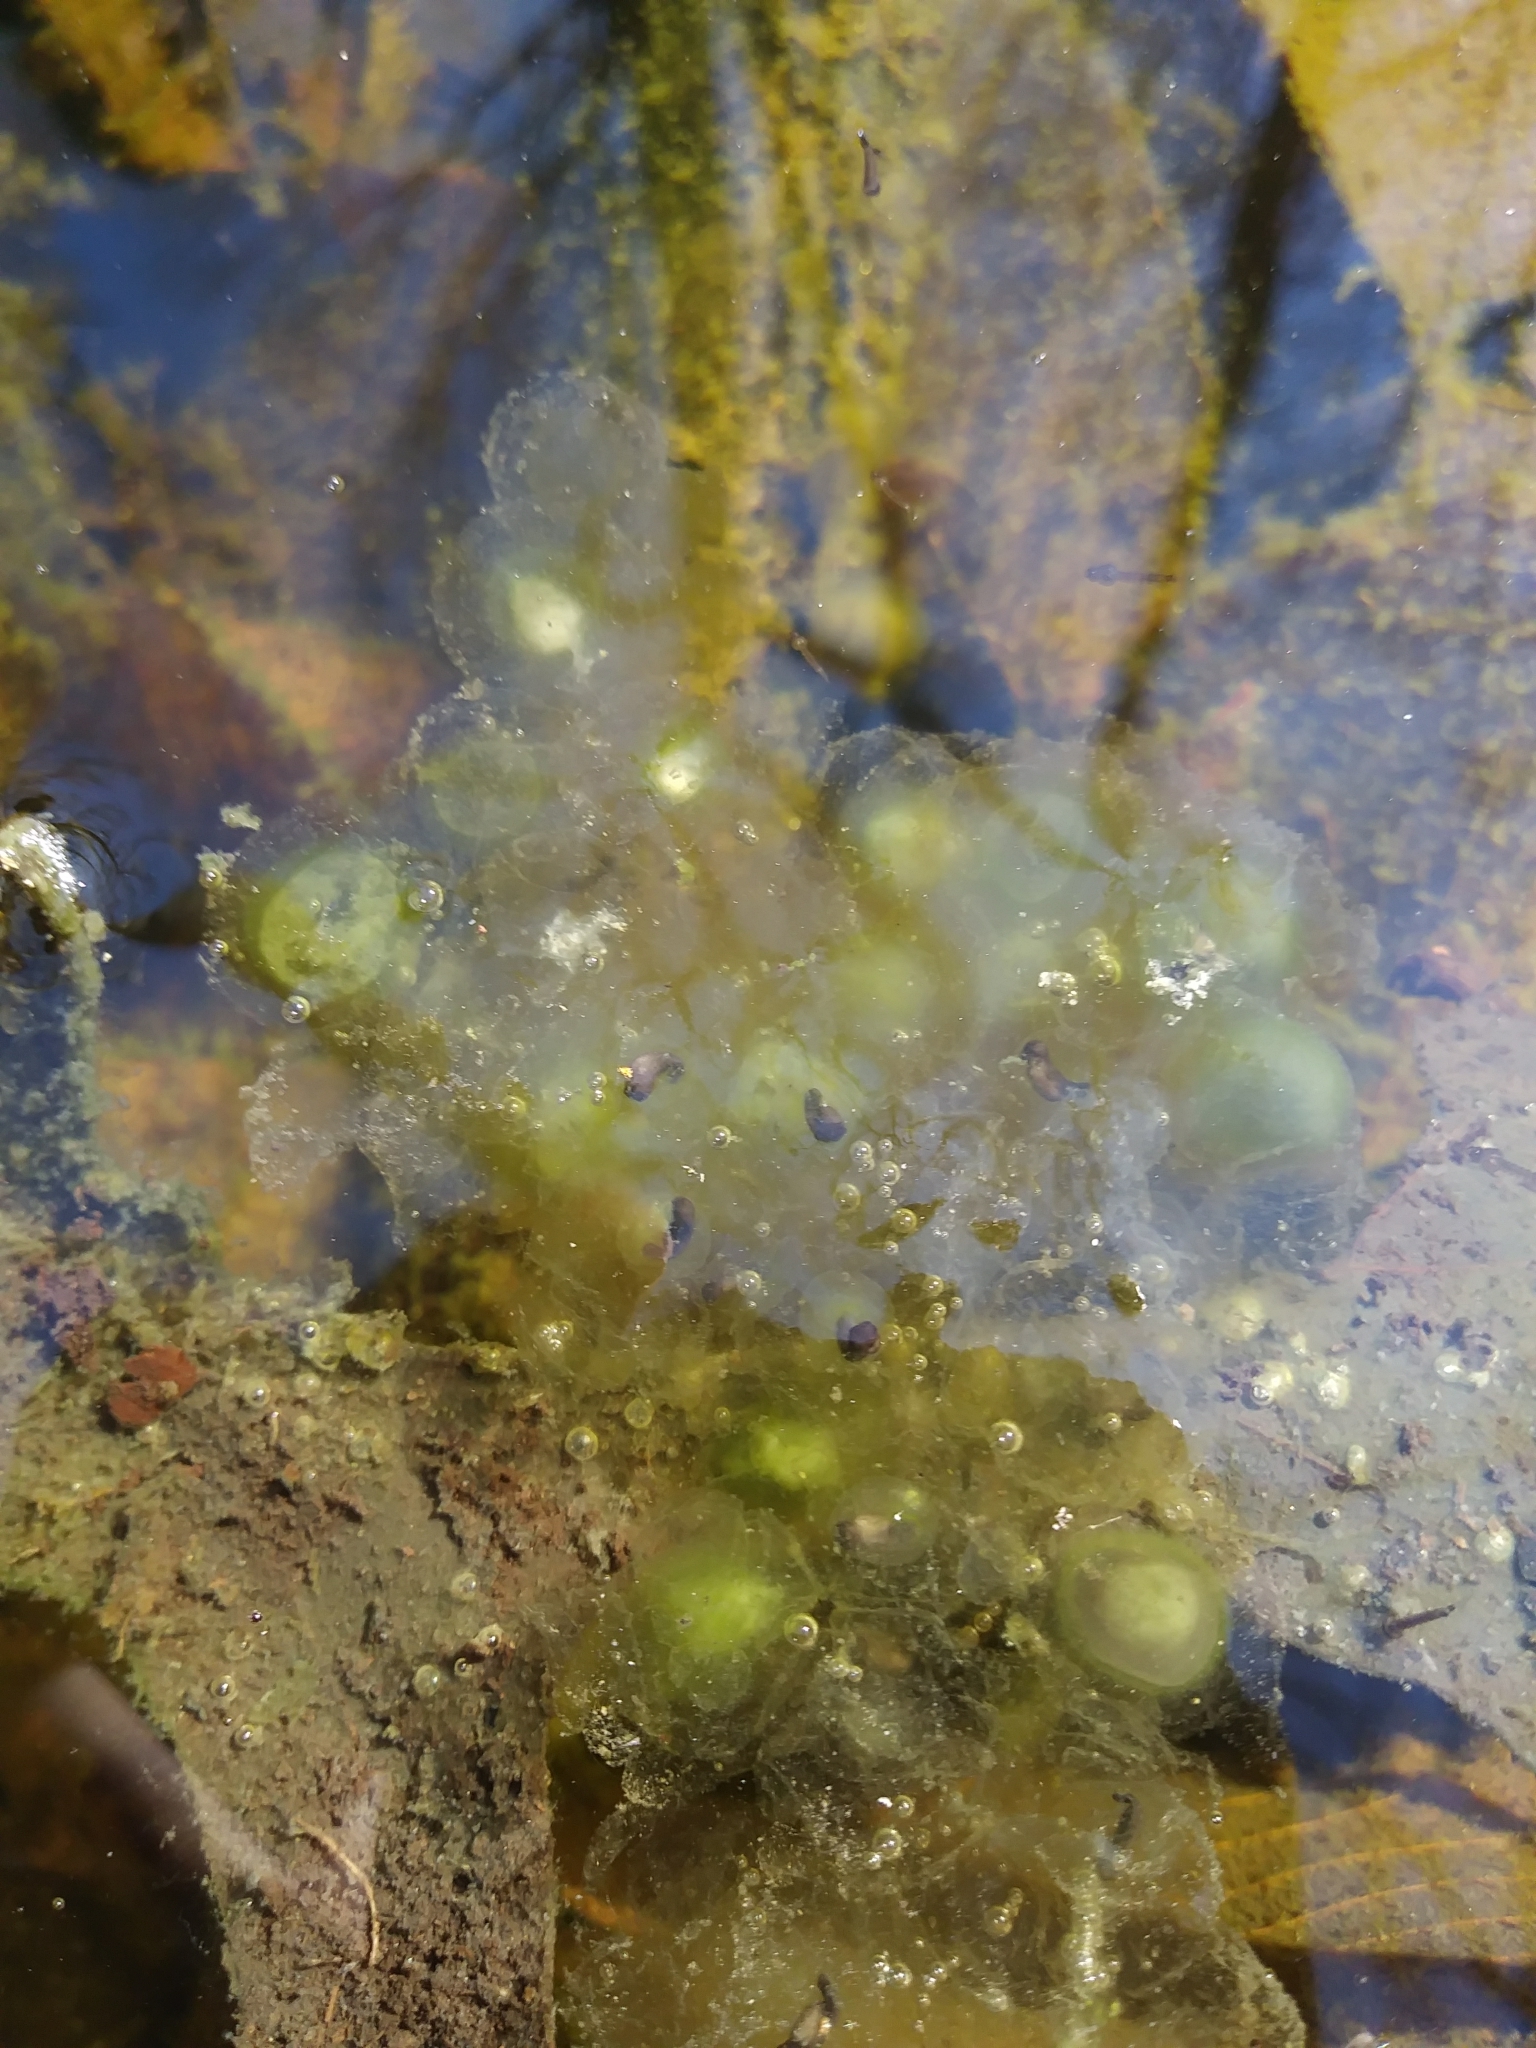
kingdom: Animalia
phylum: Chordata
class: Amphibia
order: Anura
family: Ranidae
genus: Lithobates
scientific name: Lithobates sylvaticus
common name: Wood frog
